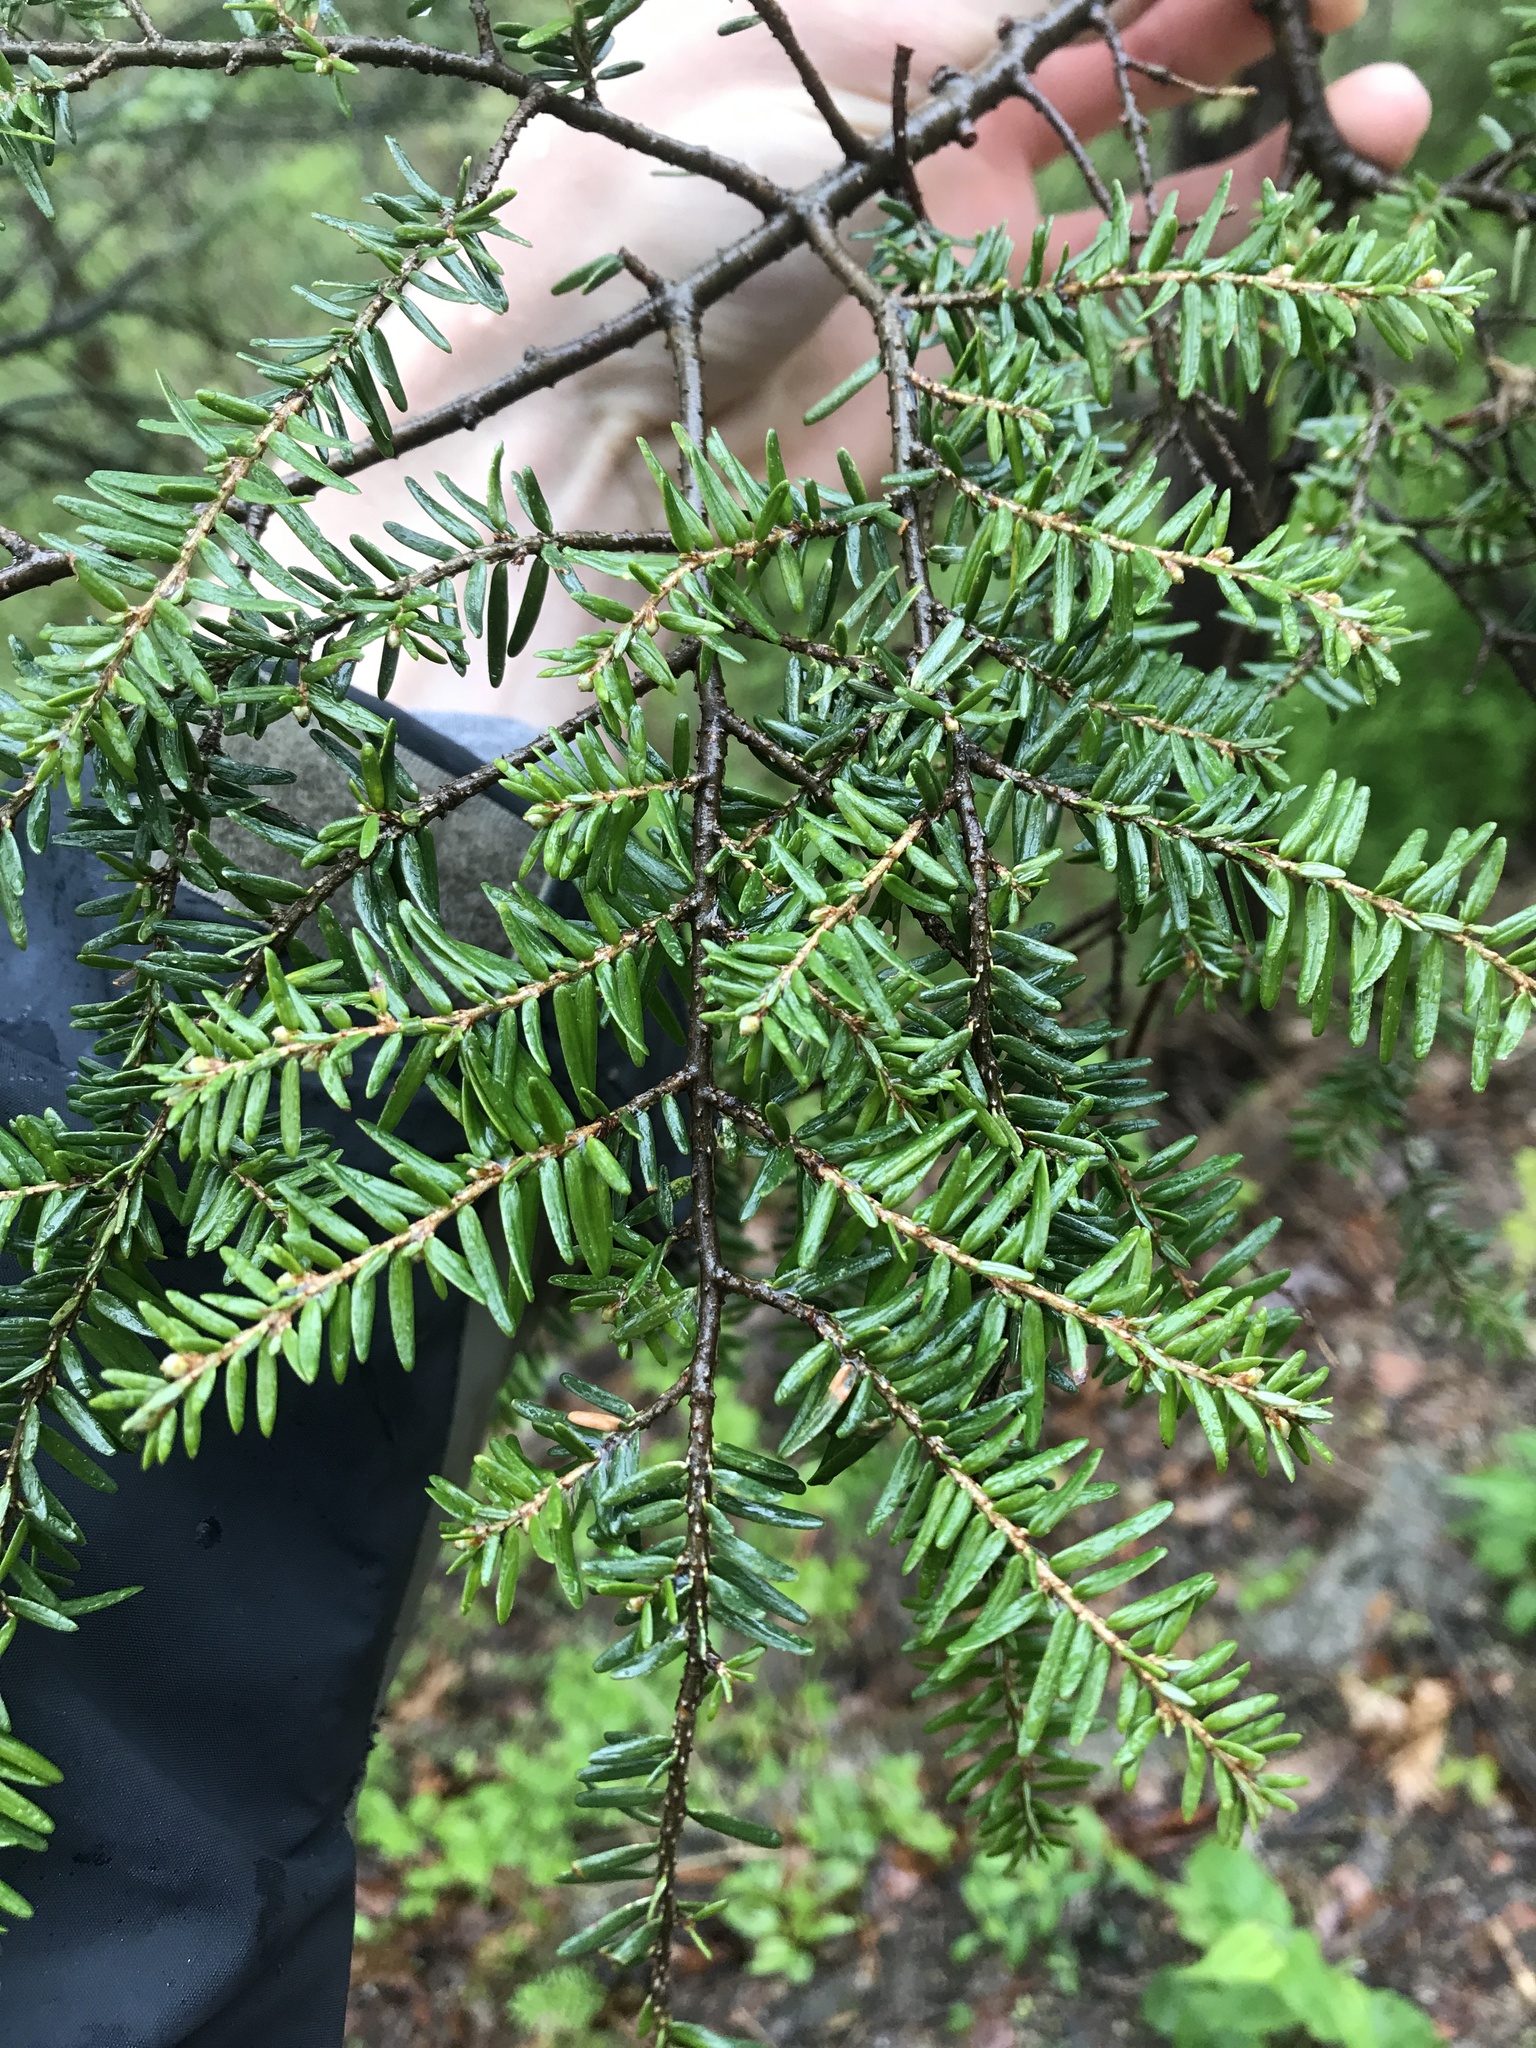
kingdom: Plantae
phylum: Tracheophyta
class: Pinopsida
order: Pinales
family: Pinaceae
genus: Tsuga
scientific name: Tsuga canadensis
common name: Eastern hemlock
